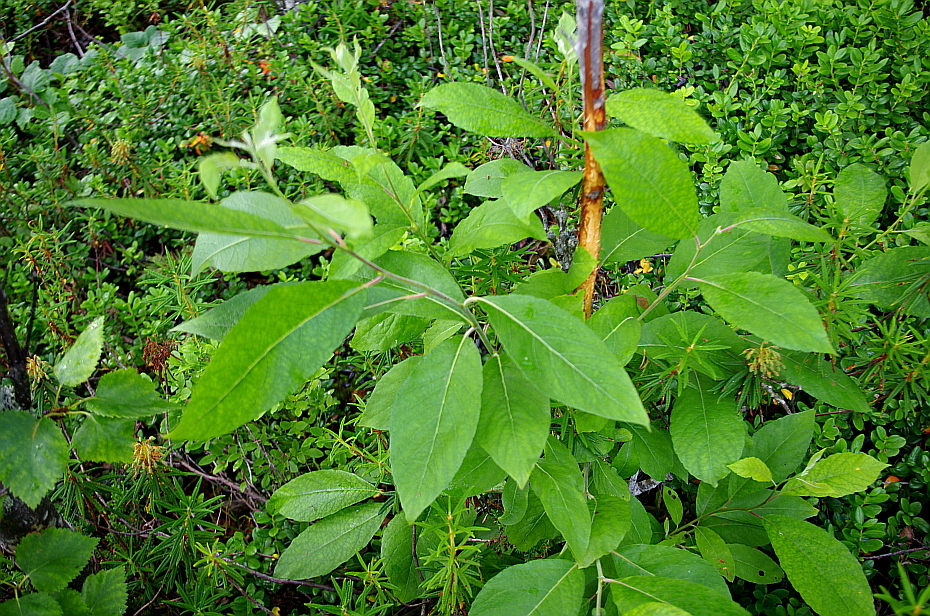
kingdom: Plantae
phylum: Tracheophyta
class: Magnoliopsida
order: Malpighiales
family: Salicaceae
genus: Salix
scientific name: Salix caprea
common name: Goat willow
